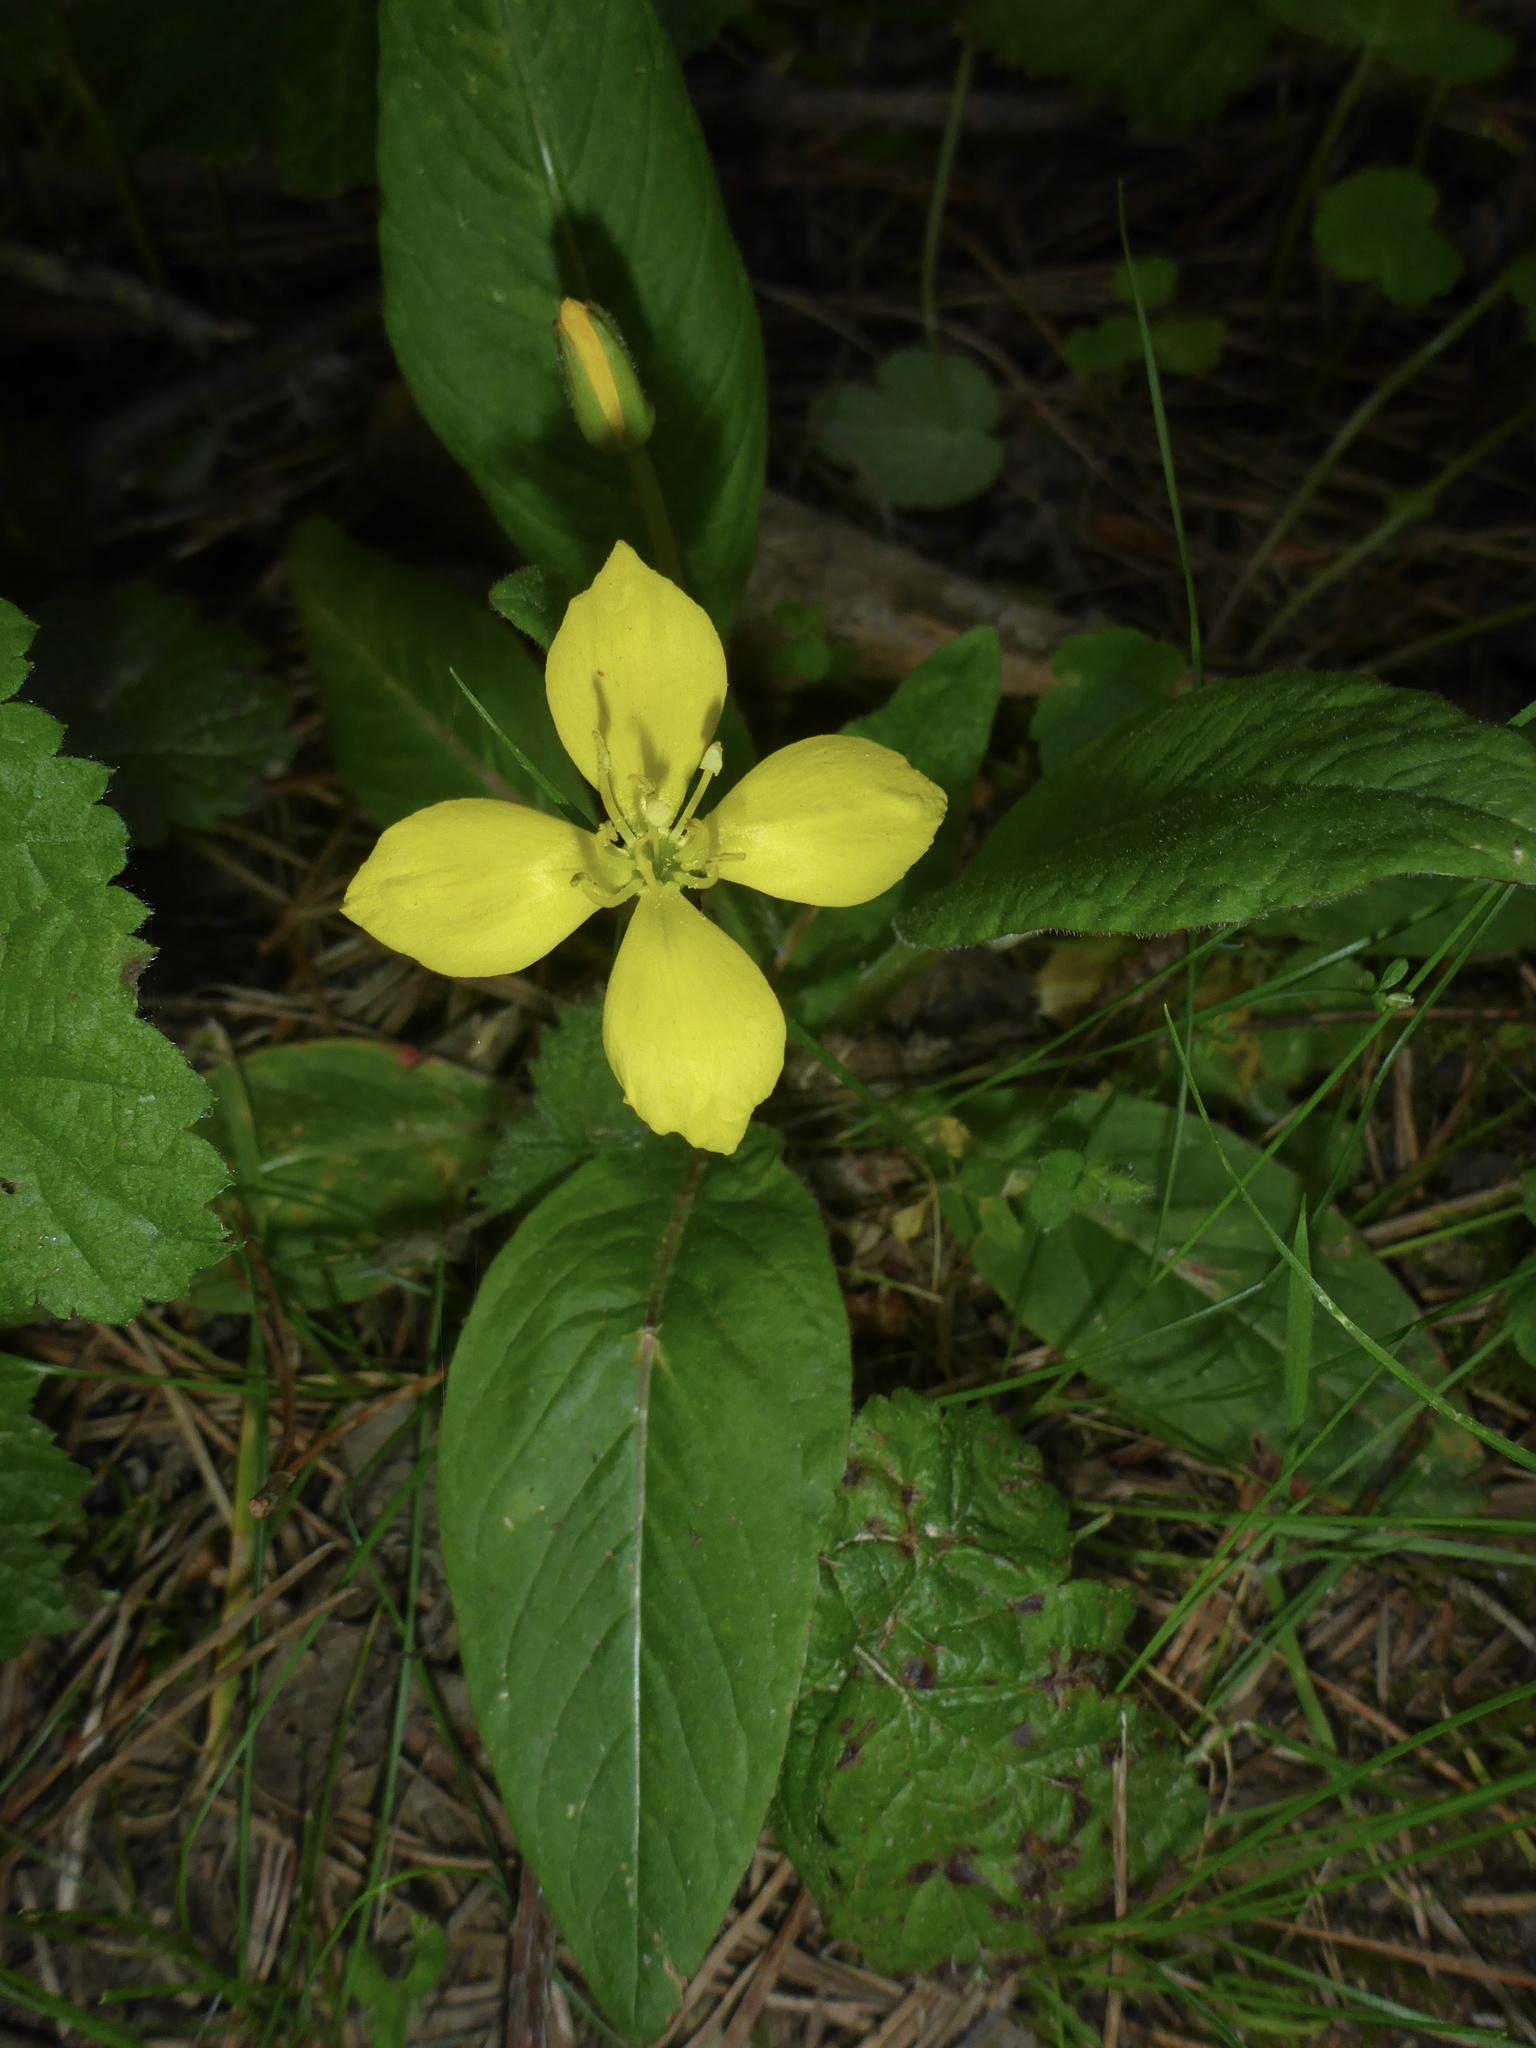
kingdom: Plantae
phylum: Tracheophyta
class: Magnoliopsida
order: Myrtales
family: Onagraceae
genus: Taraxia
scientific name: Taraxia ovata
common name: Goldeneggs
